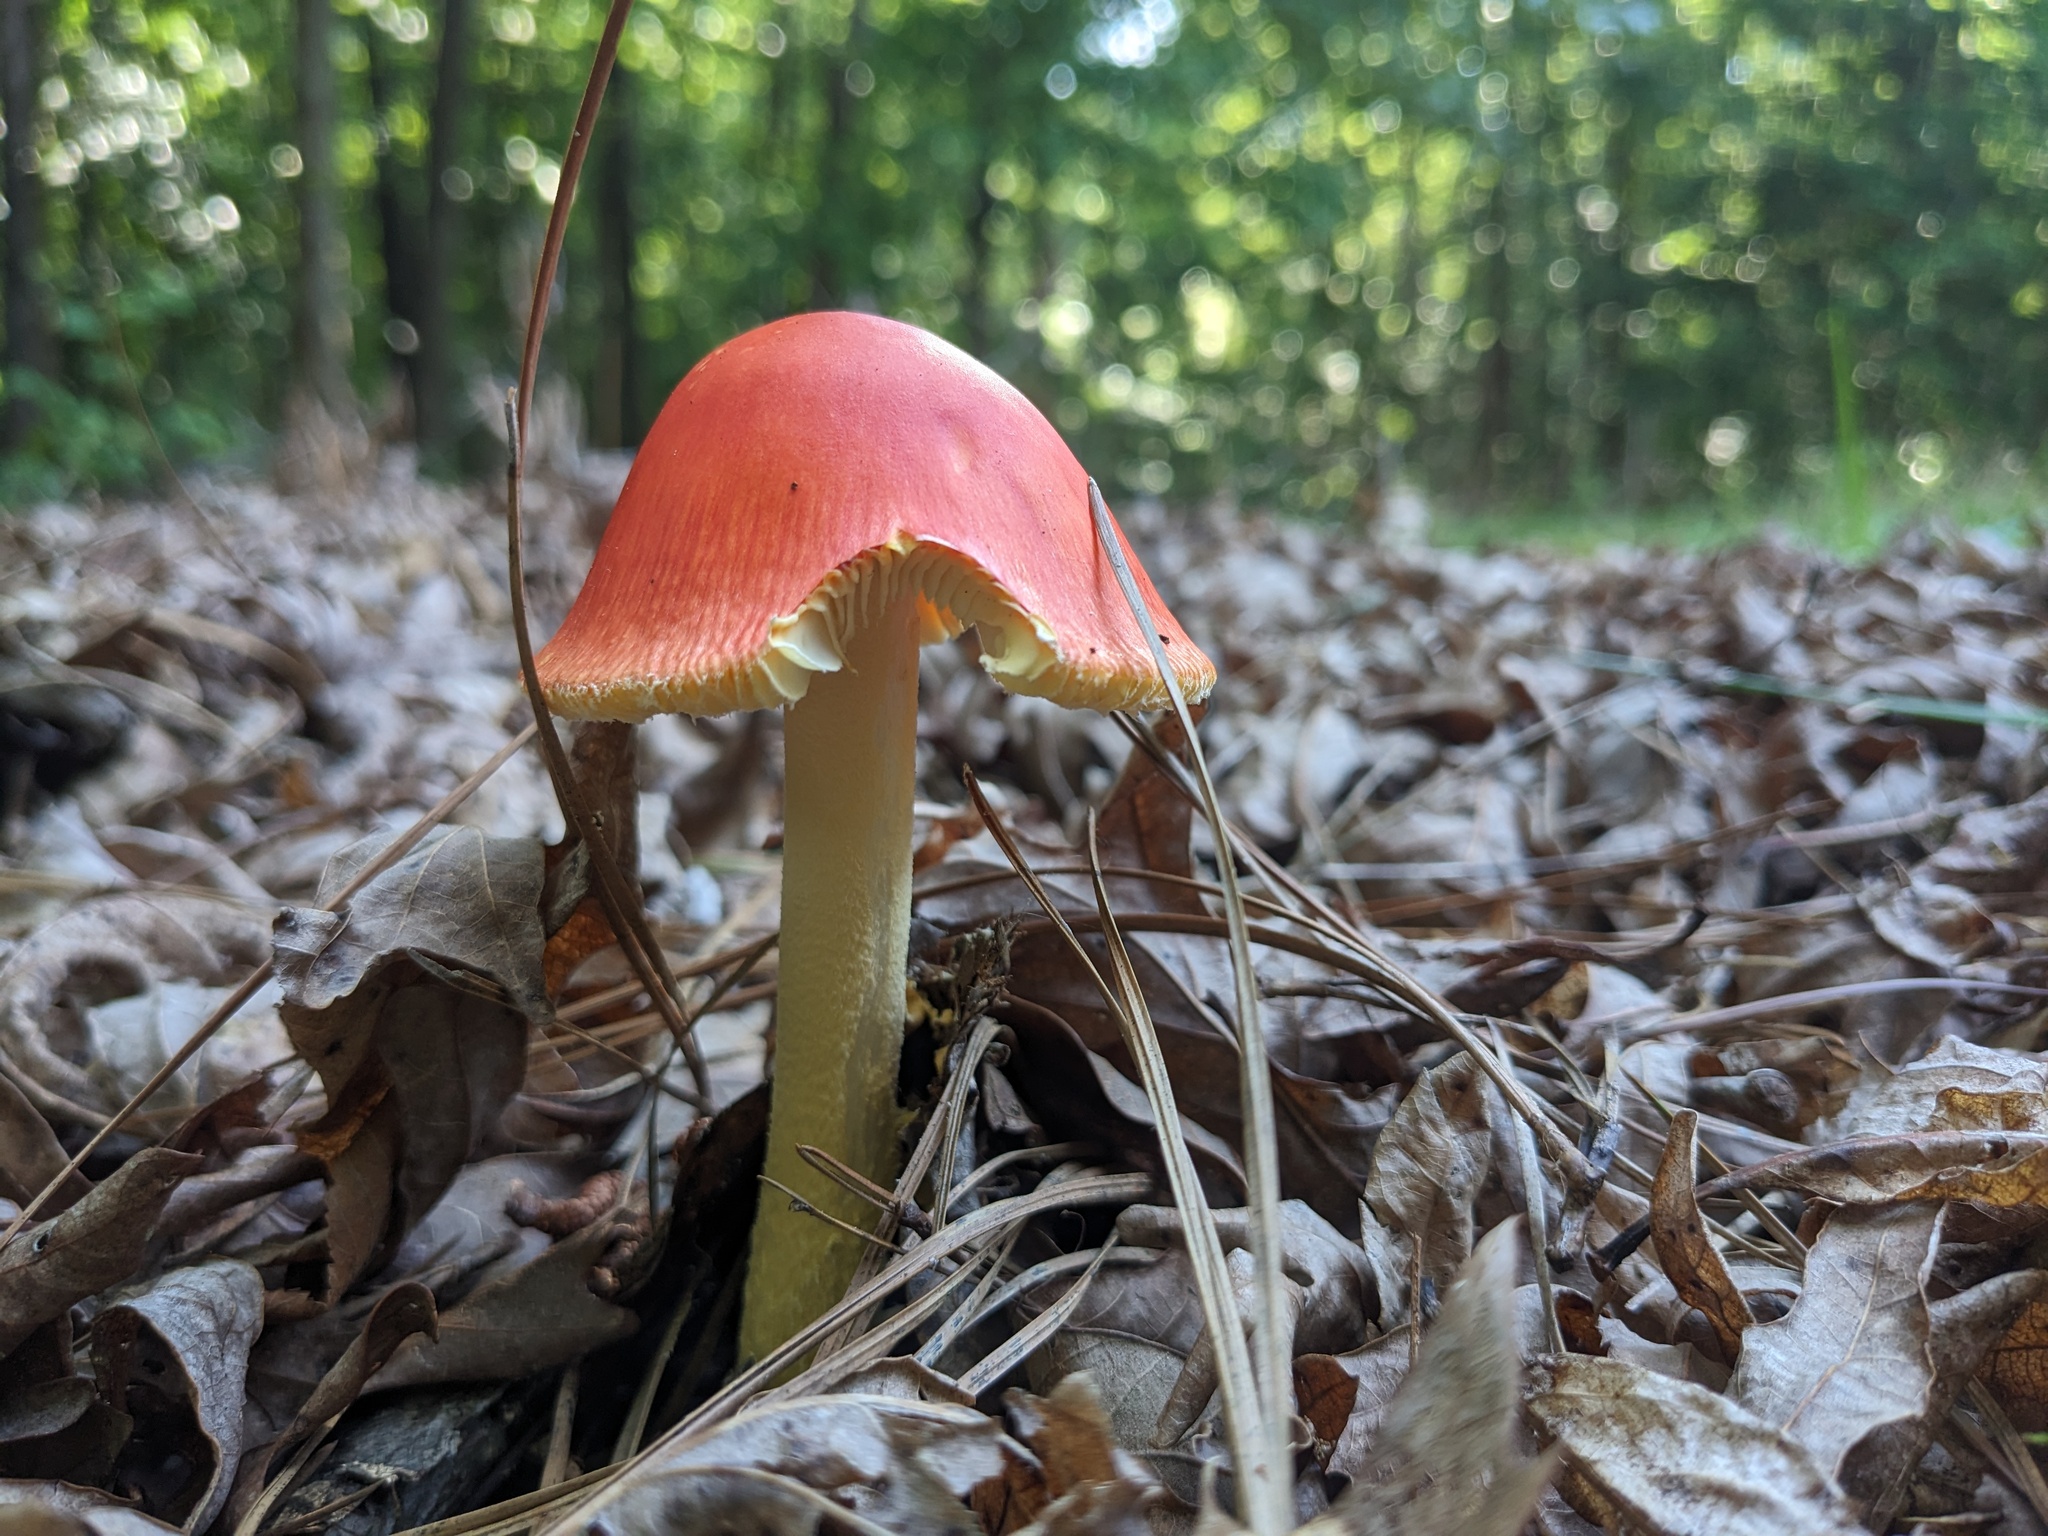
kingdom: Fungi
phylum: Basidiomycota
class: Agaricomycetes
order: Agaricales
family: Amanitaceae
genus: Amanita
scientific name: Amanita parcivolvata
